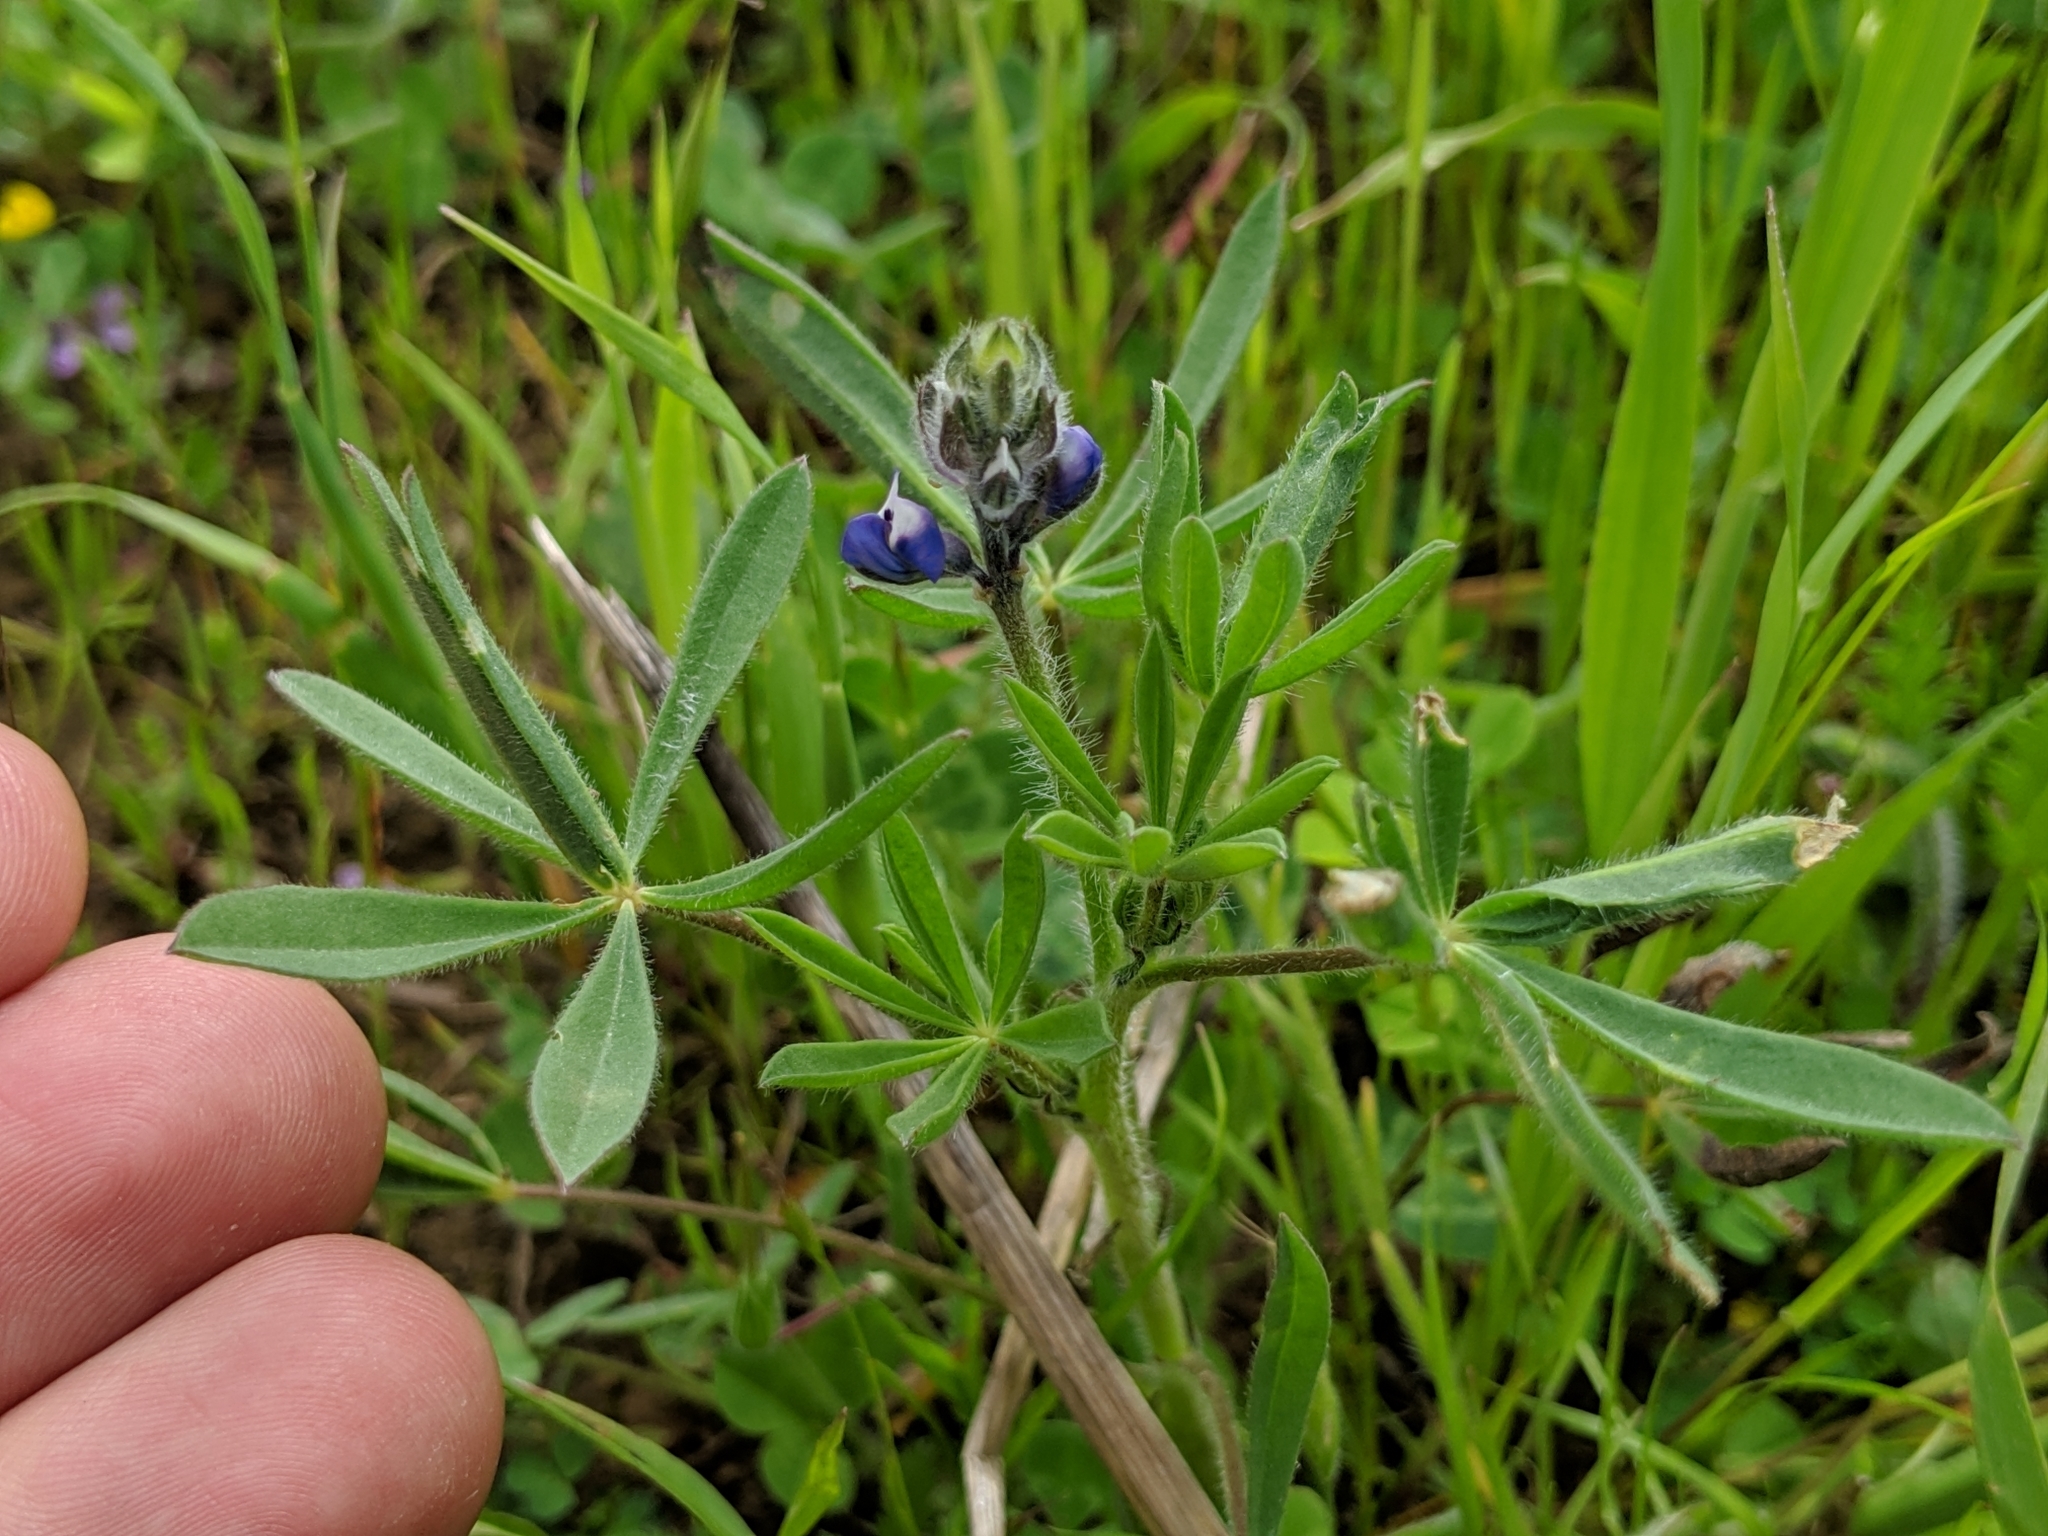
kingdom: Plantae
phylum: Tracheophyta
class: Magnoliopsida
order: Fabales
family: Fabaceae
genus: Lupinus
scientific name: Lupinus bicolor
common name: Miniature lupine
